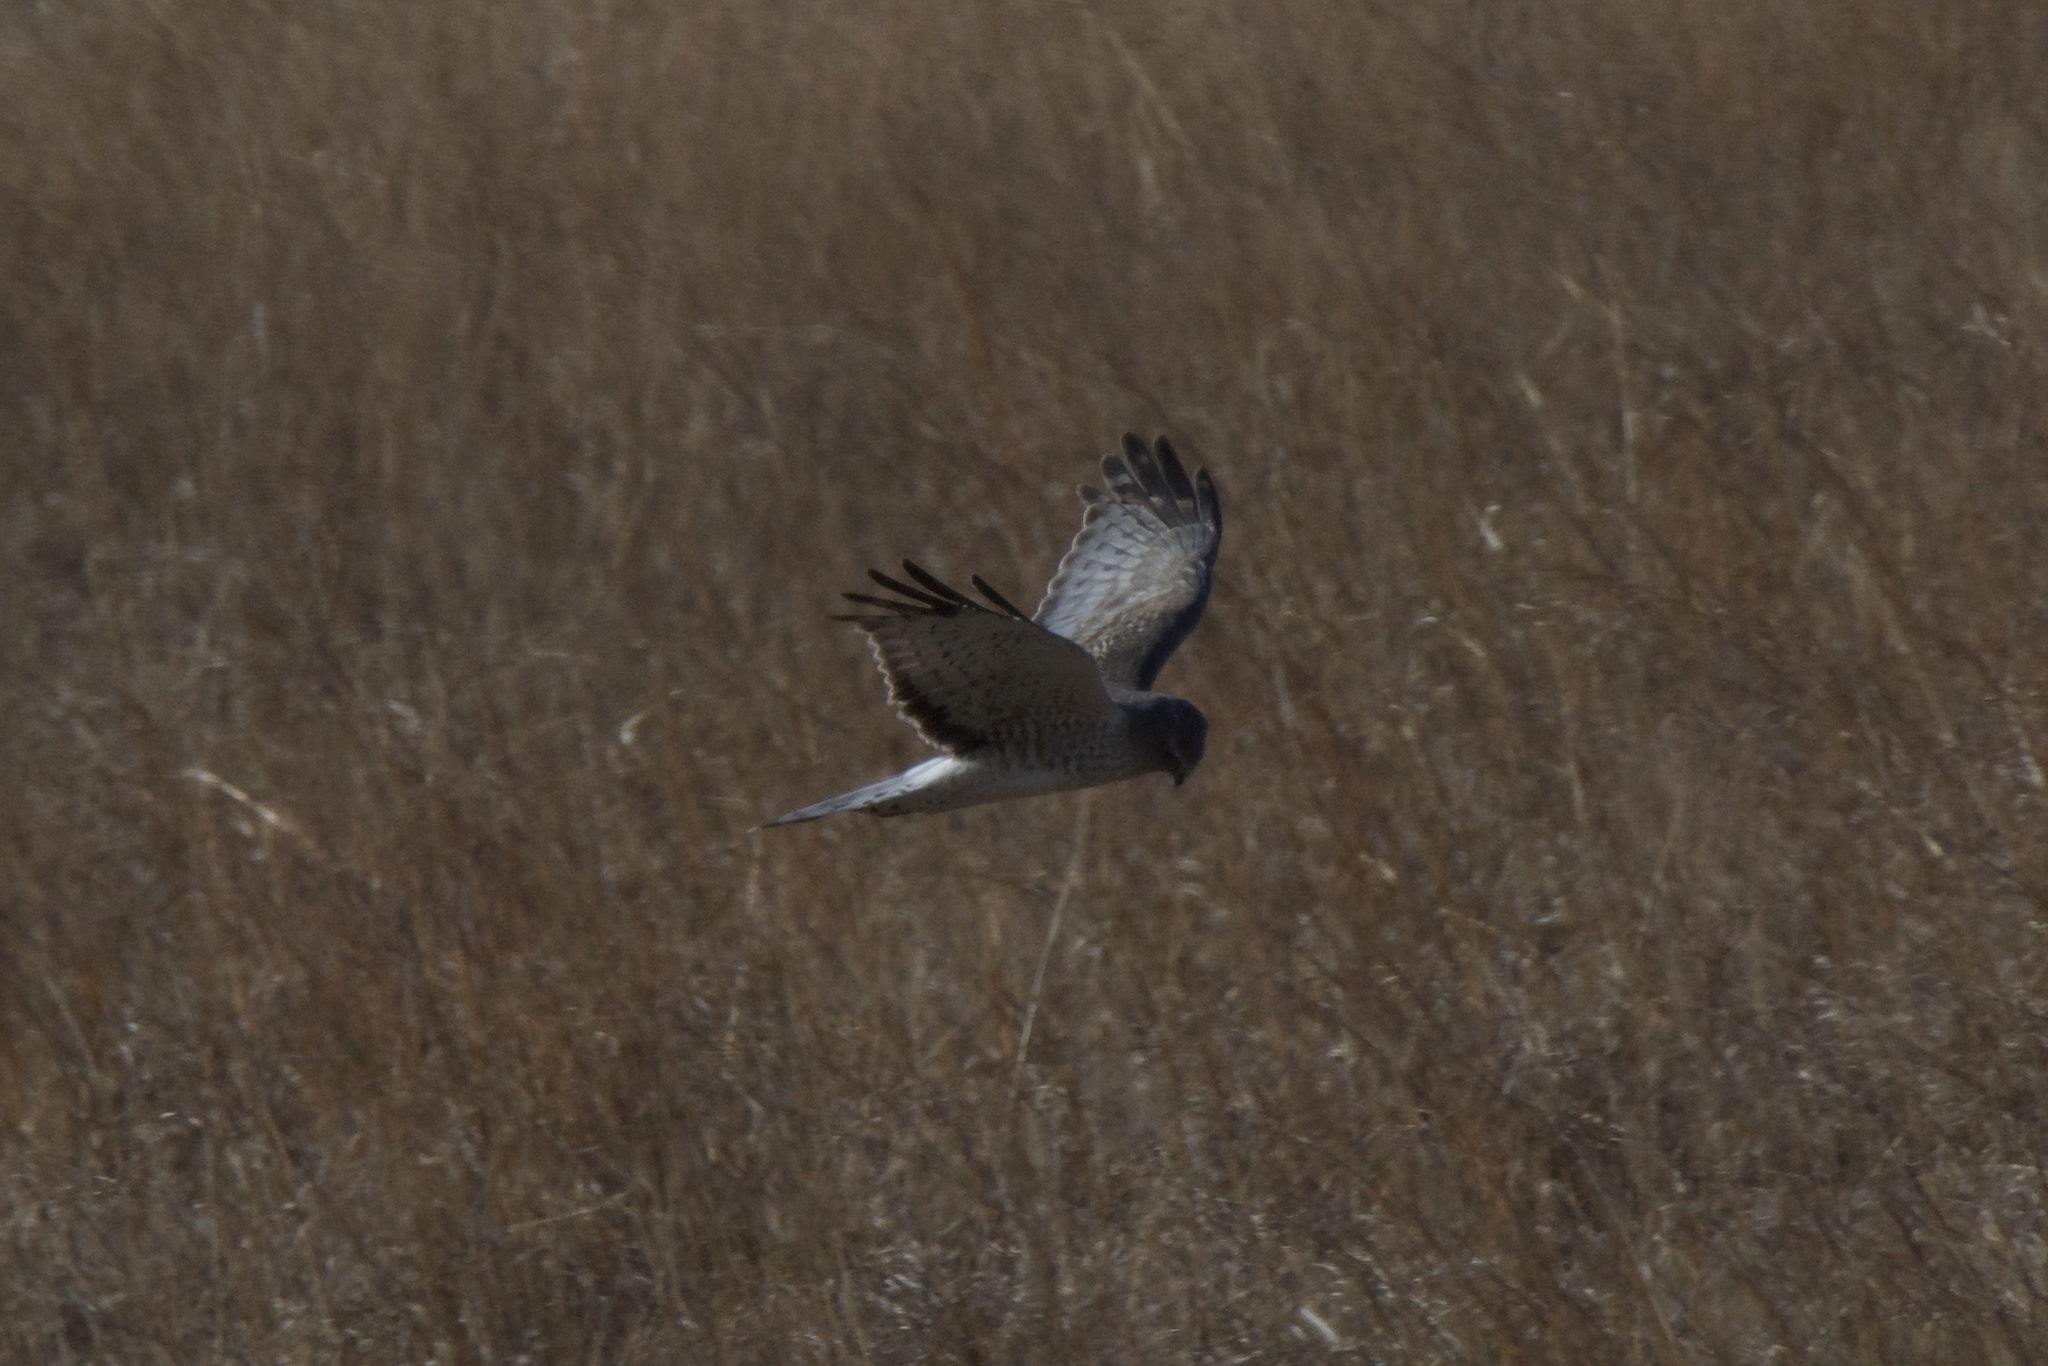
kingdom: Animalia
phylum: Chordata
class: Aves
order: Accipitriformes
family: Accipitridae
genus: Circus
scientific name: Circus cyaneus
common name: Hen harrier
